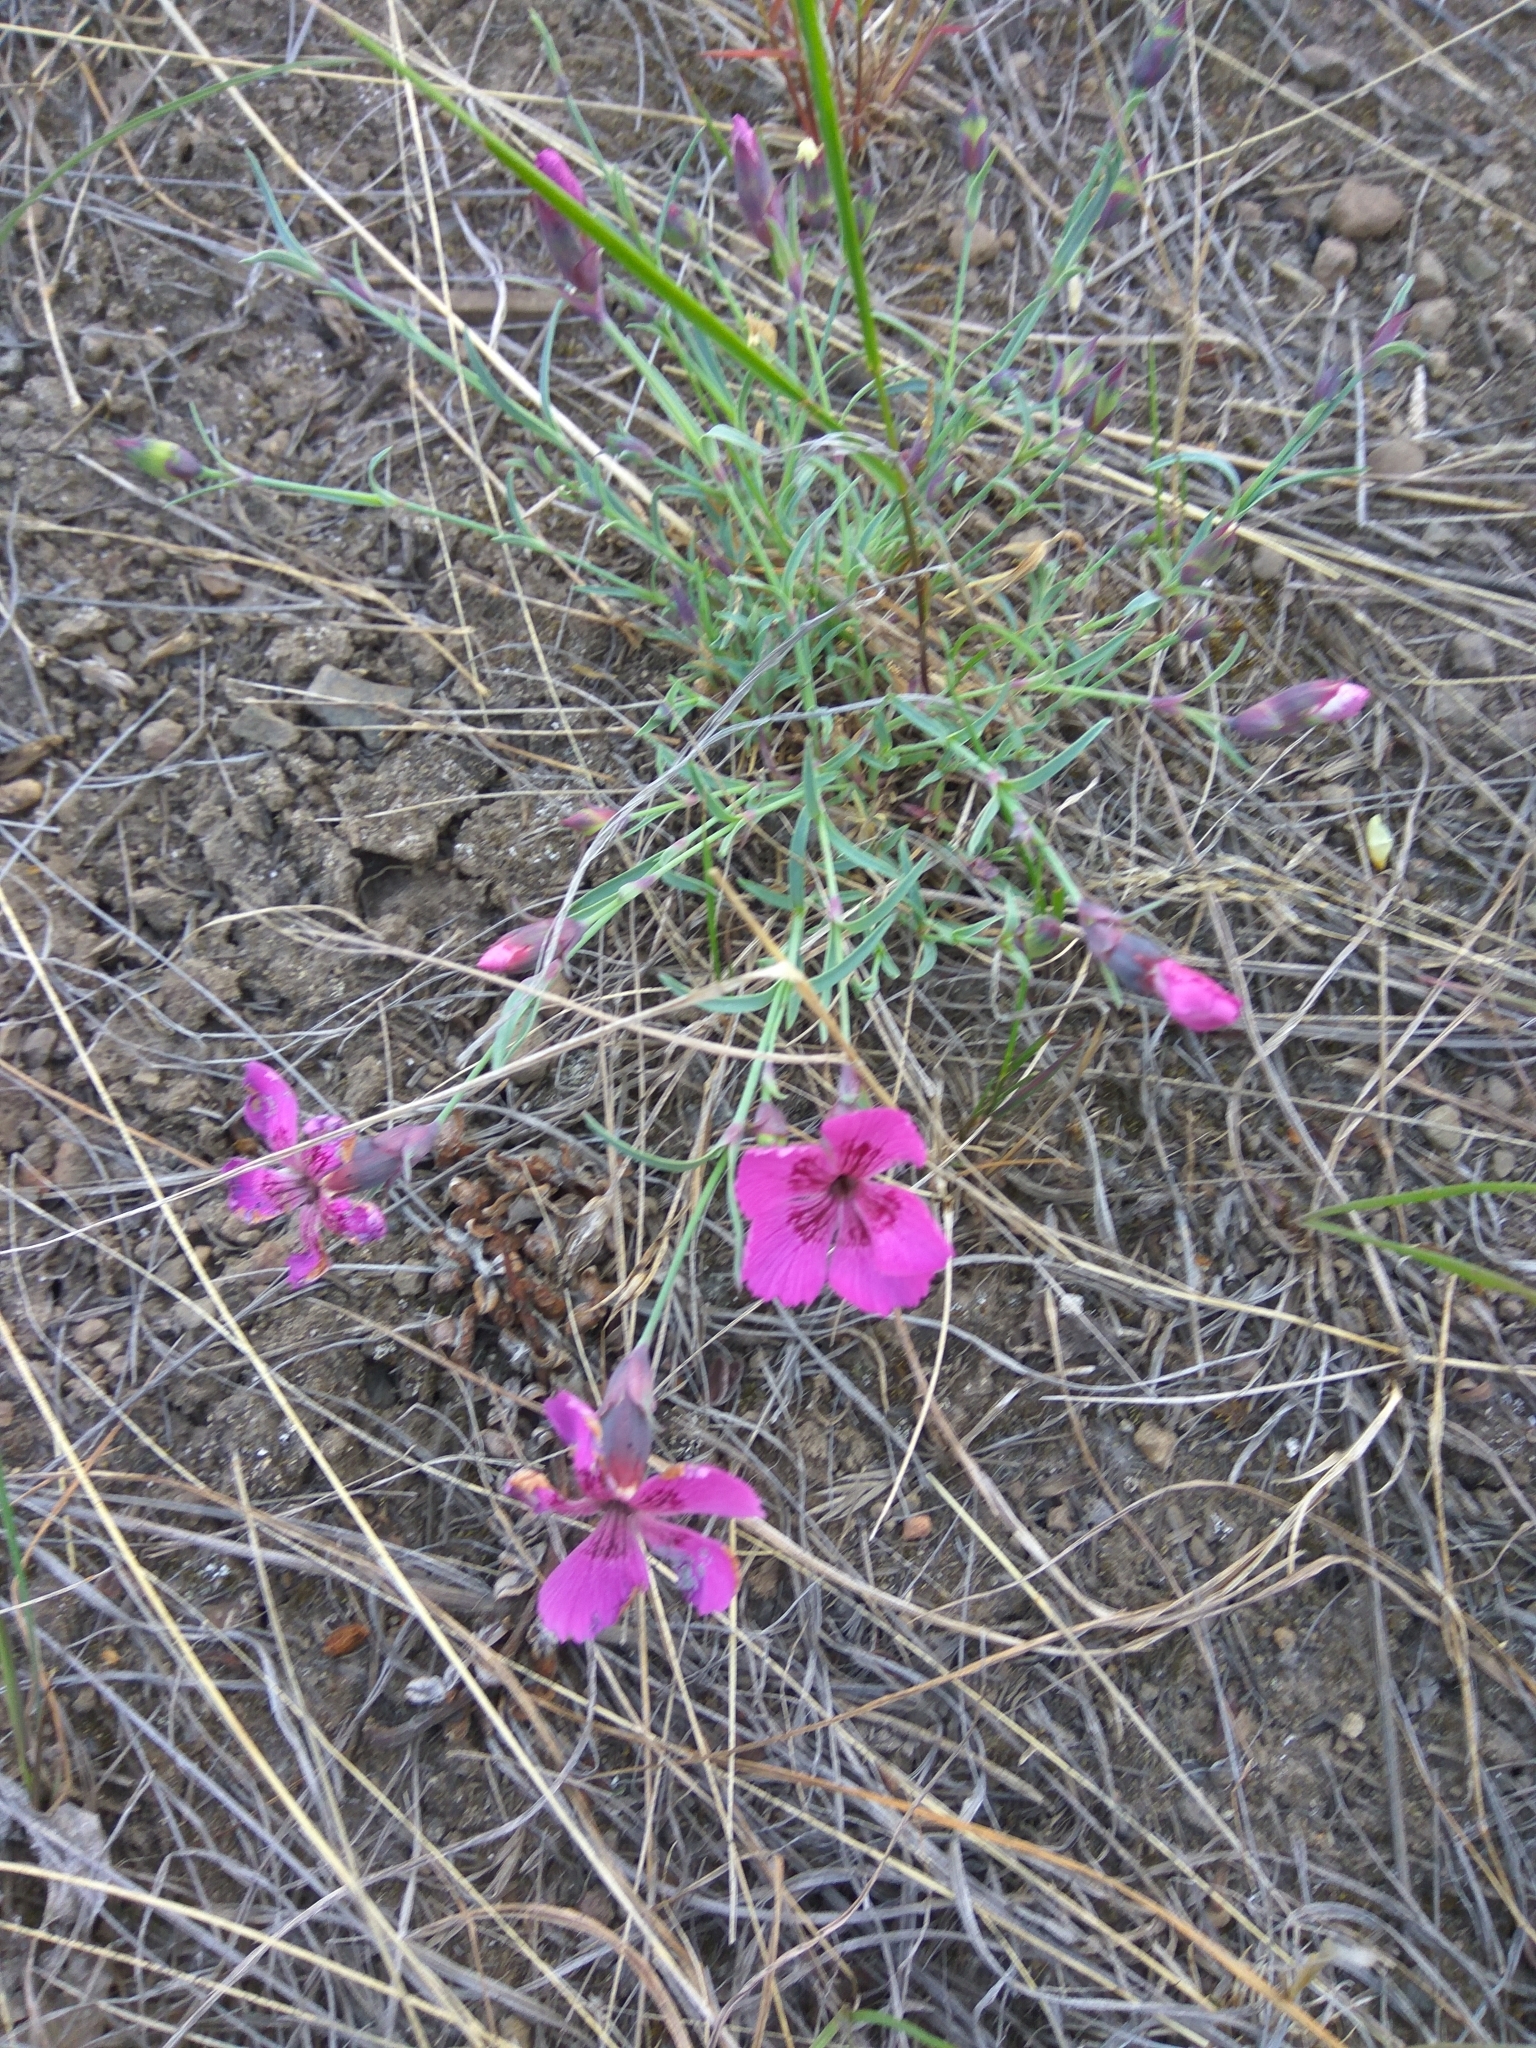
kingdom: Plantae
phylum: Tracheophyta
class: Magnoliopsida
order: Caryophyllales
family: Caryophyllaceae
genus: Dianthus
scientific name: Dianthus repens
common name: Northern pink
